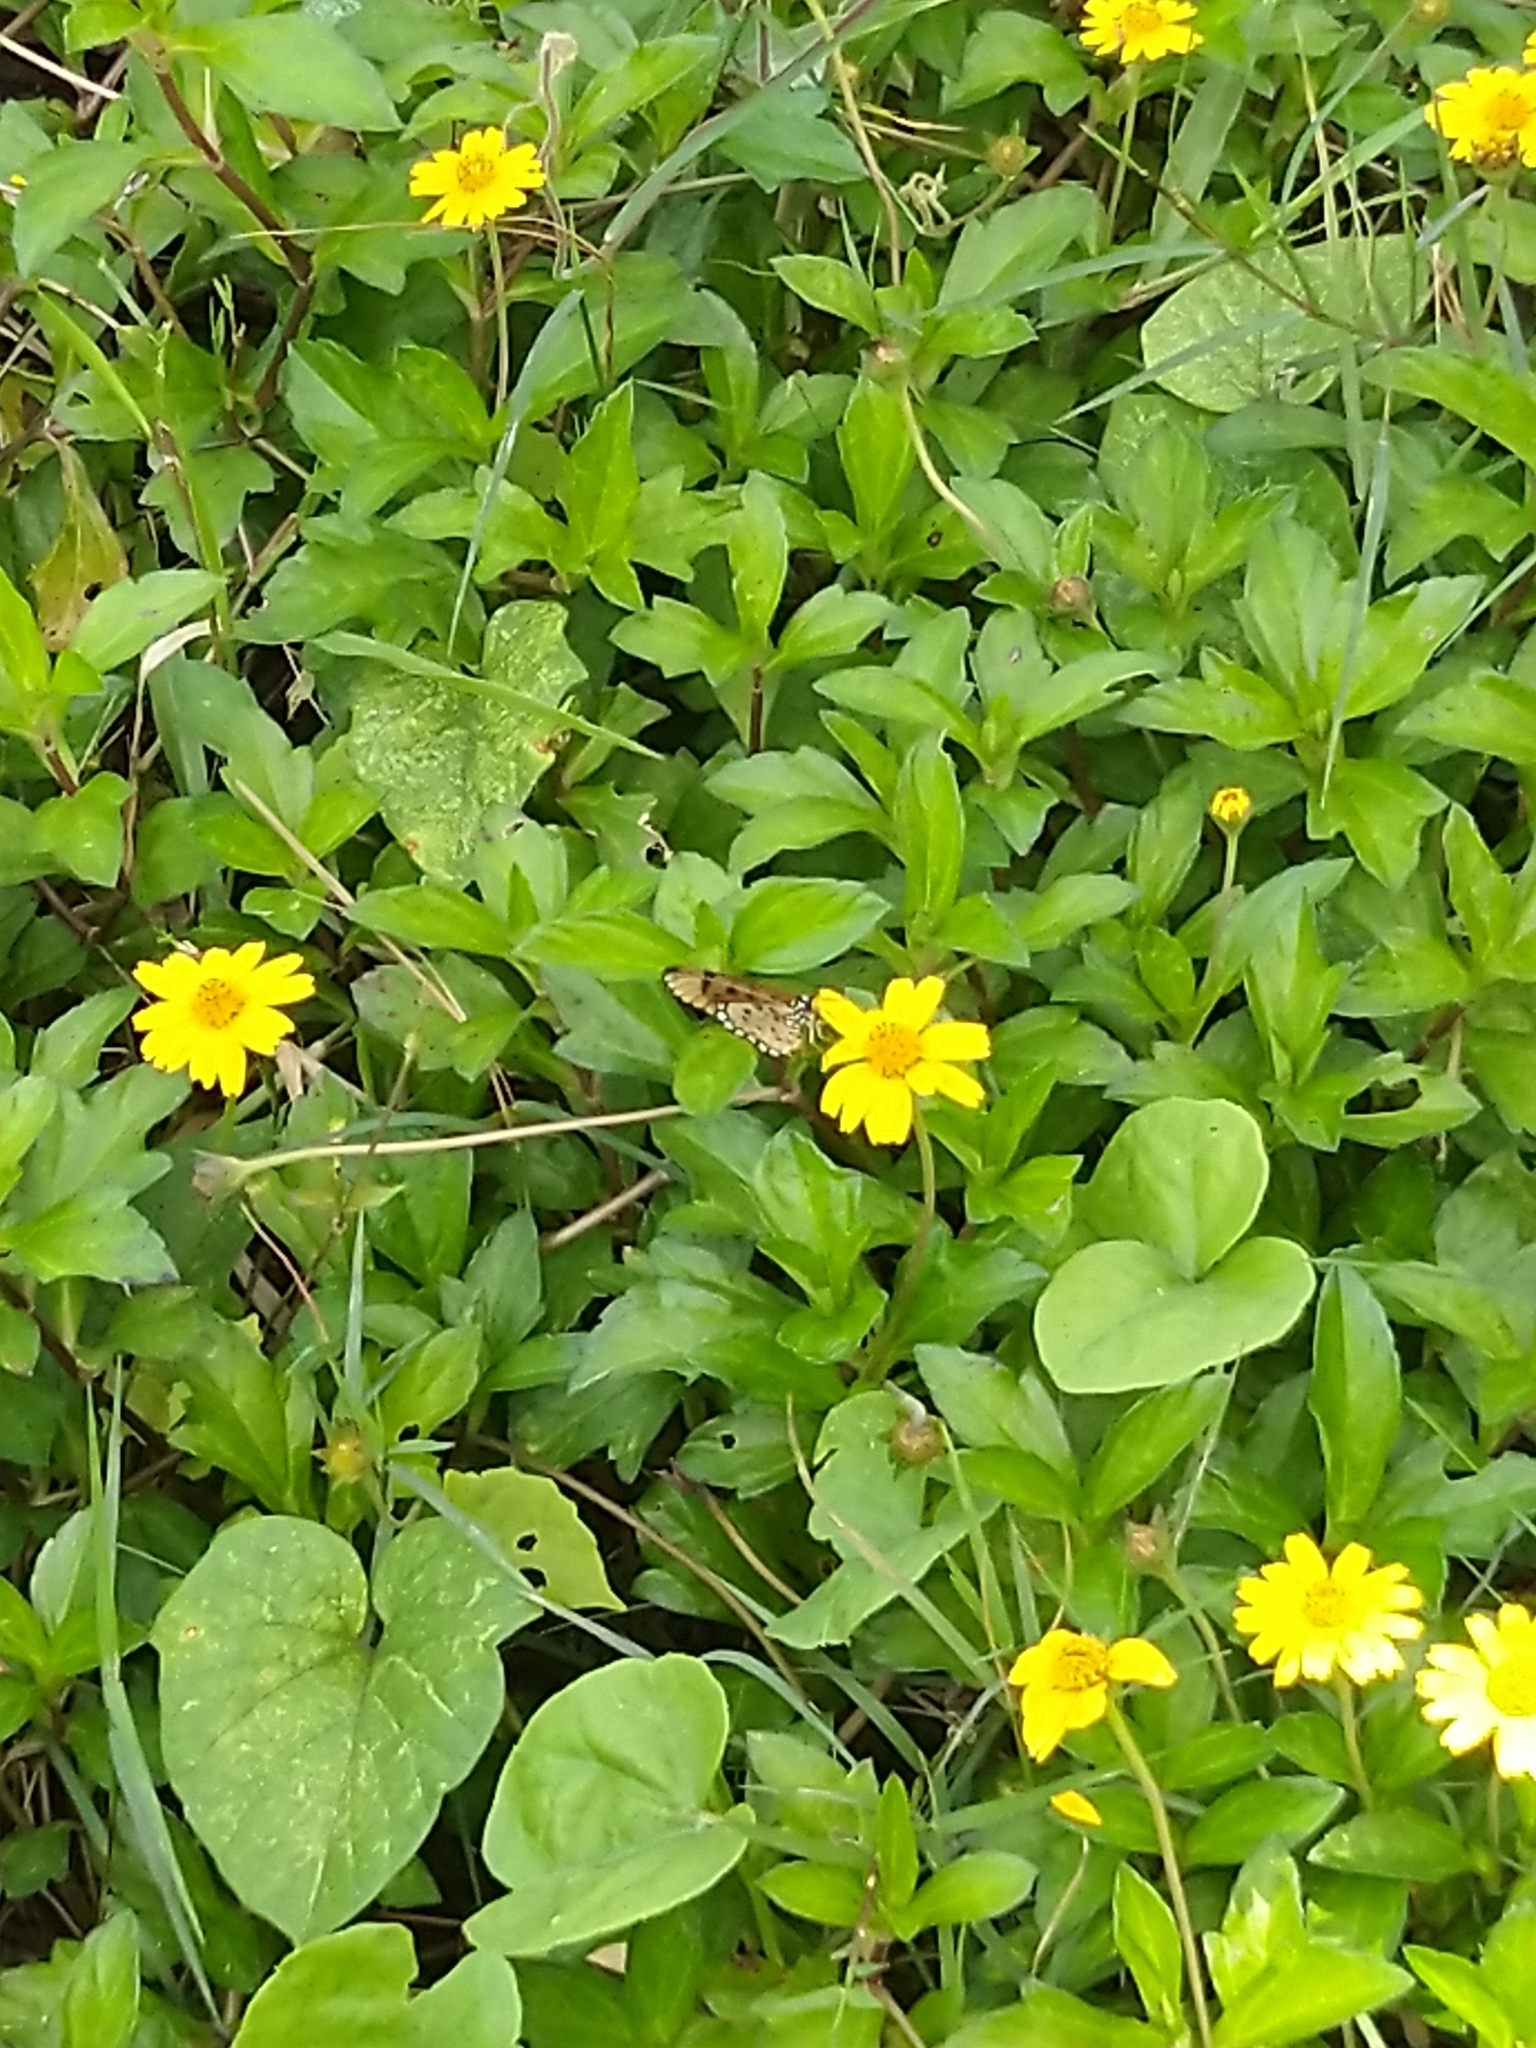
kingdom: Animalia
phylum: Arthropoda
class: Insecta
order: Lepidoptera
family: Nymphalidae
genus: Acraea
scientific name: Acraea terpsicore
